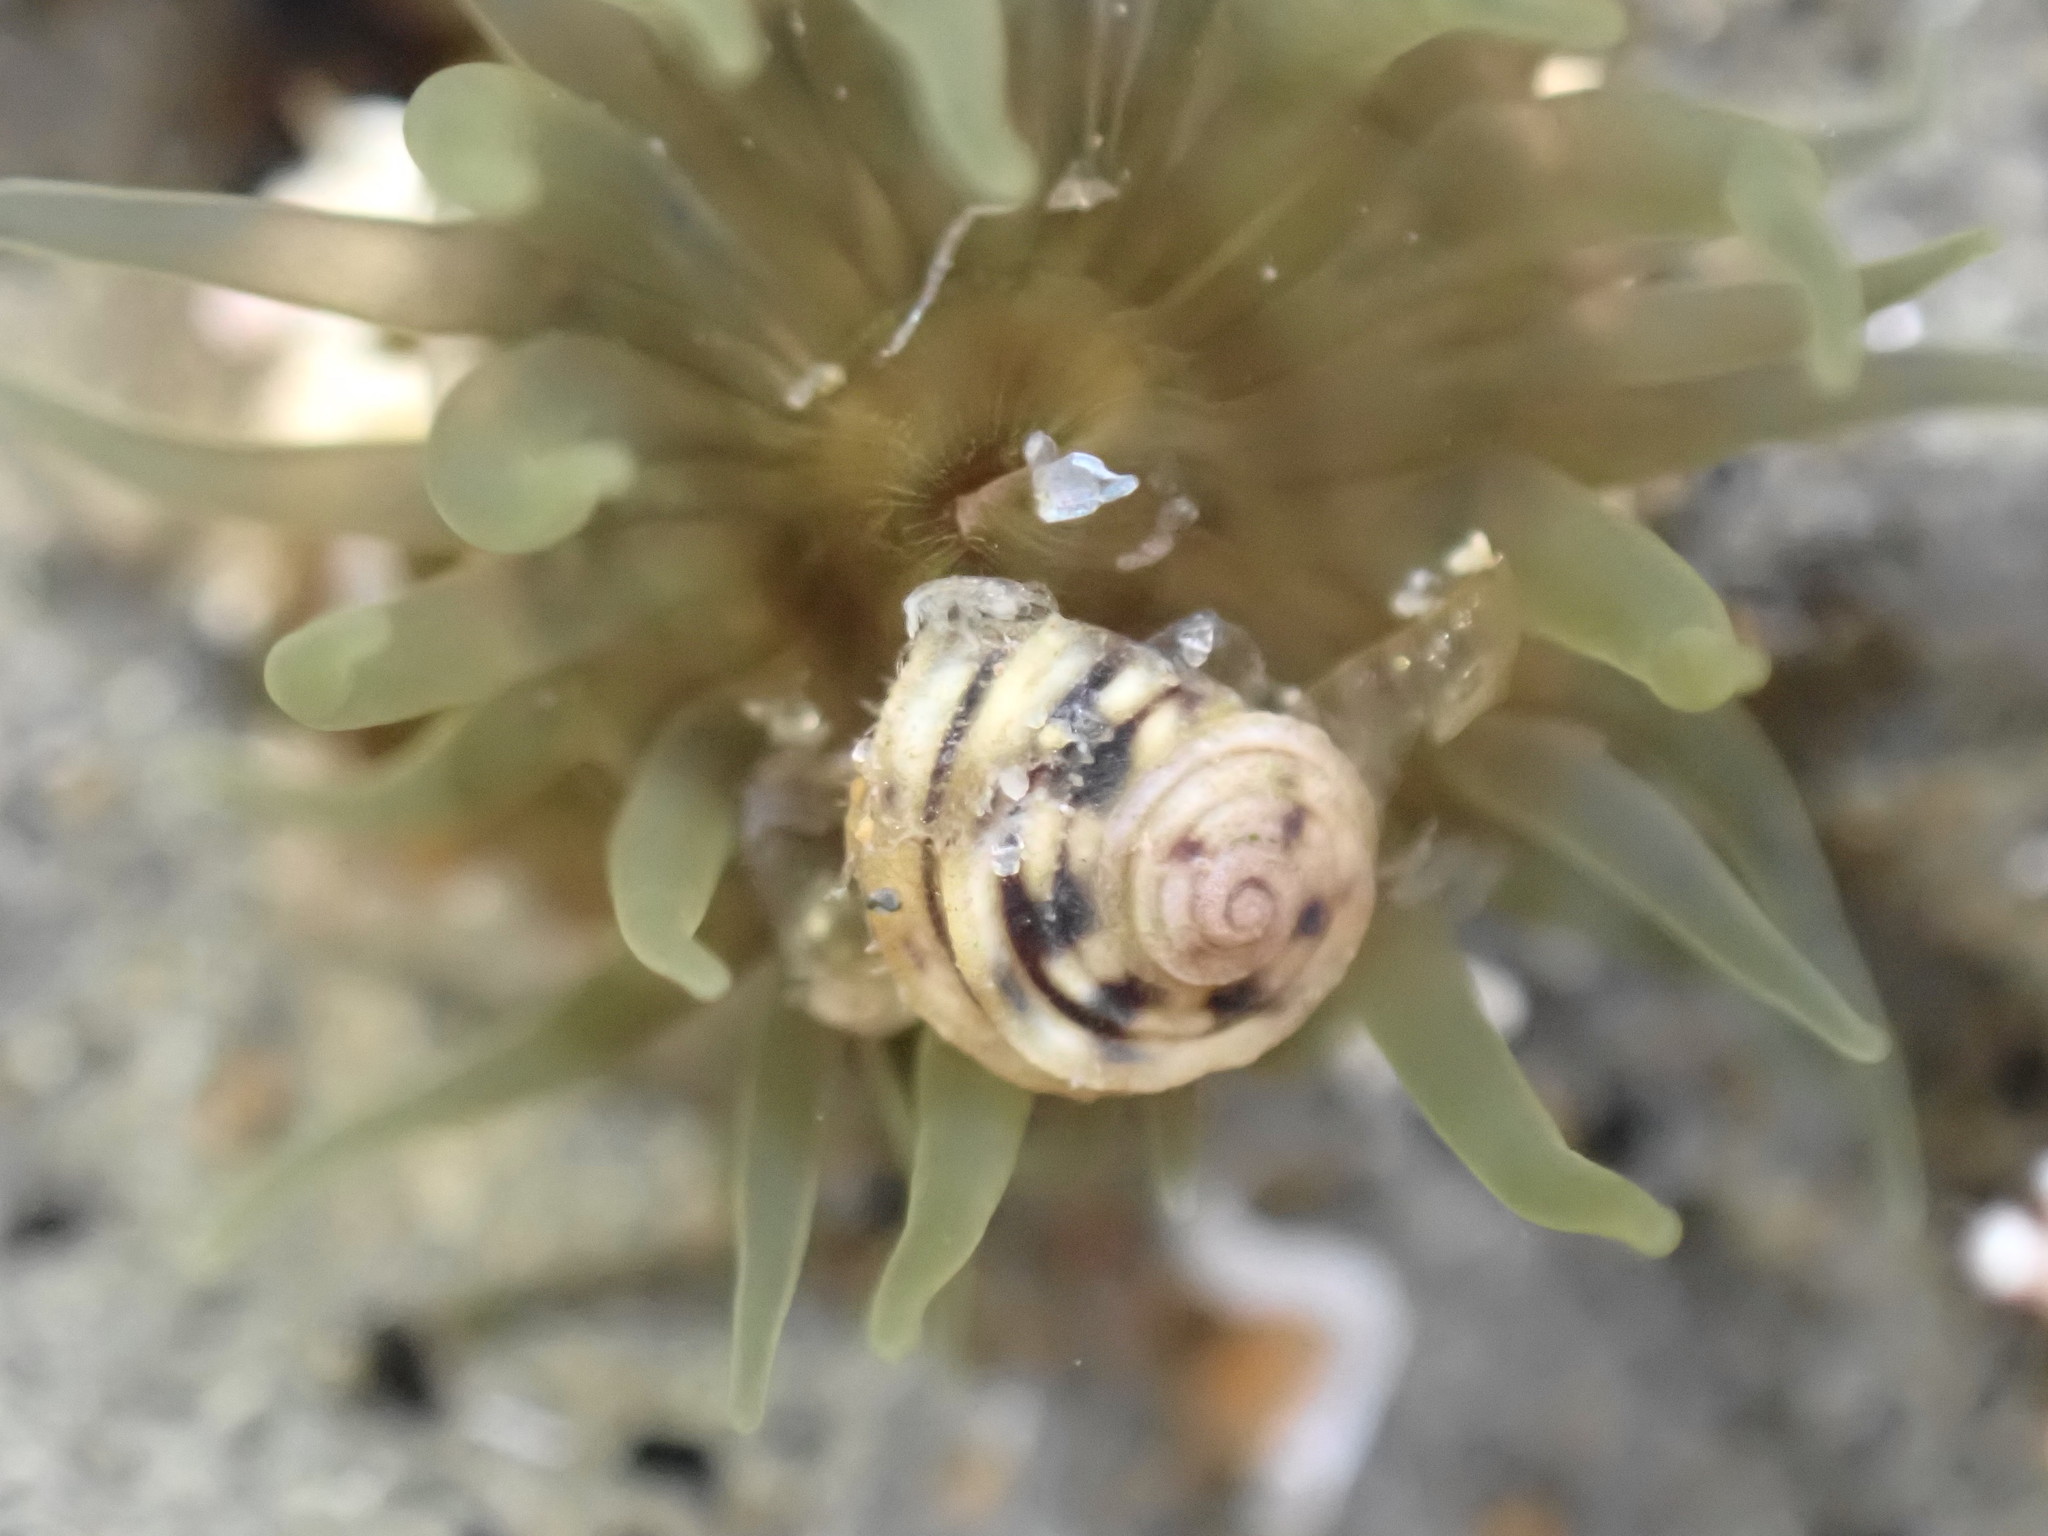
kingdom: Animalia
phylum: Mollusca
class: Gastropoda
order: Littorinimorpha
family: Littorinidae
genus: Risellopsis
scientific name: Risellopsis varia
